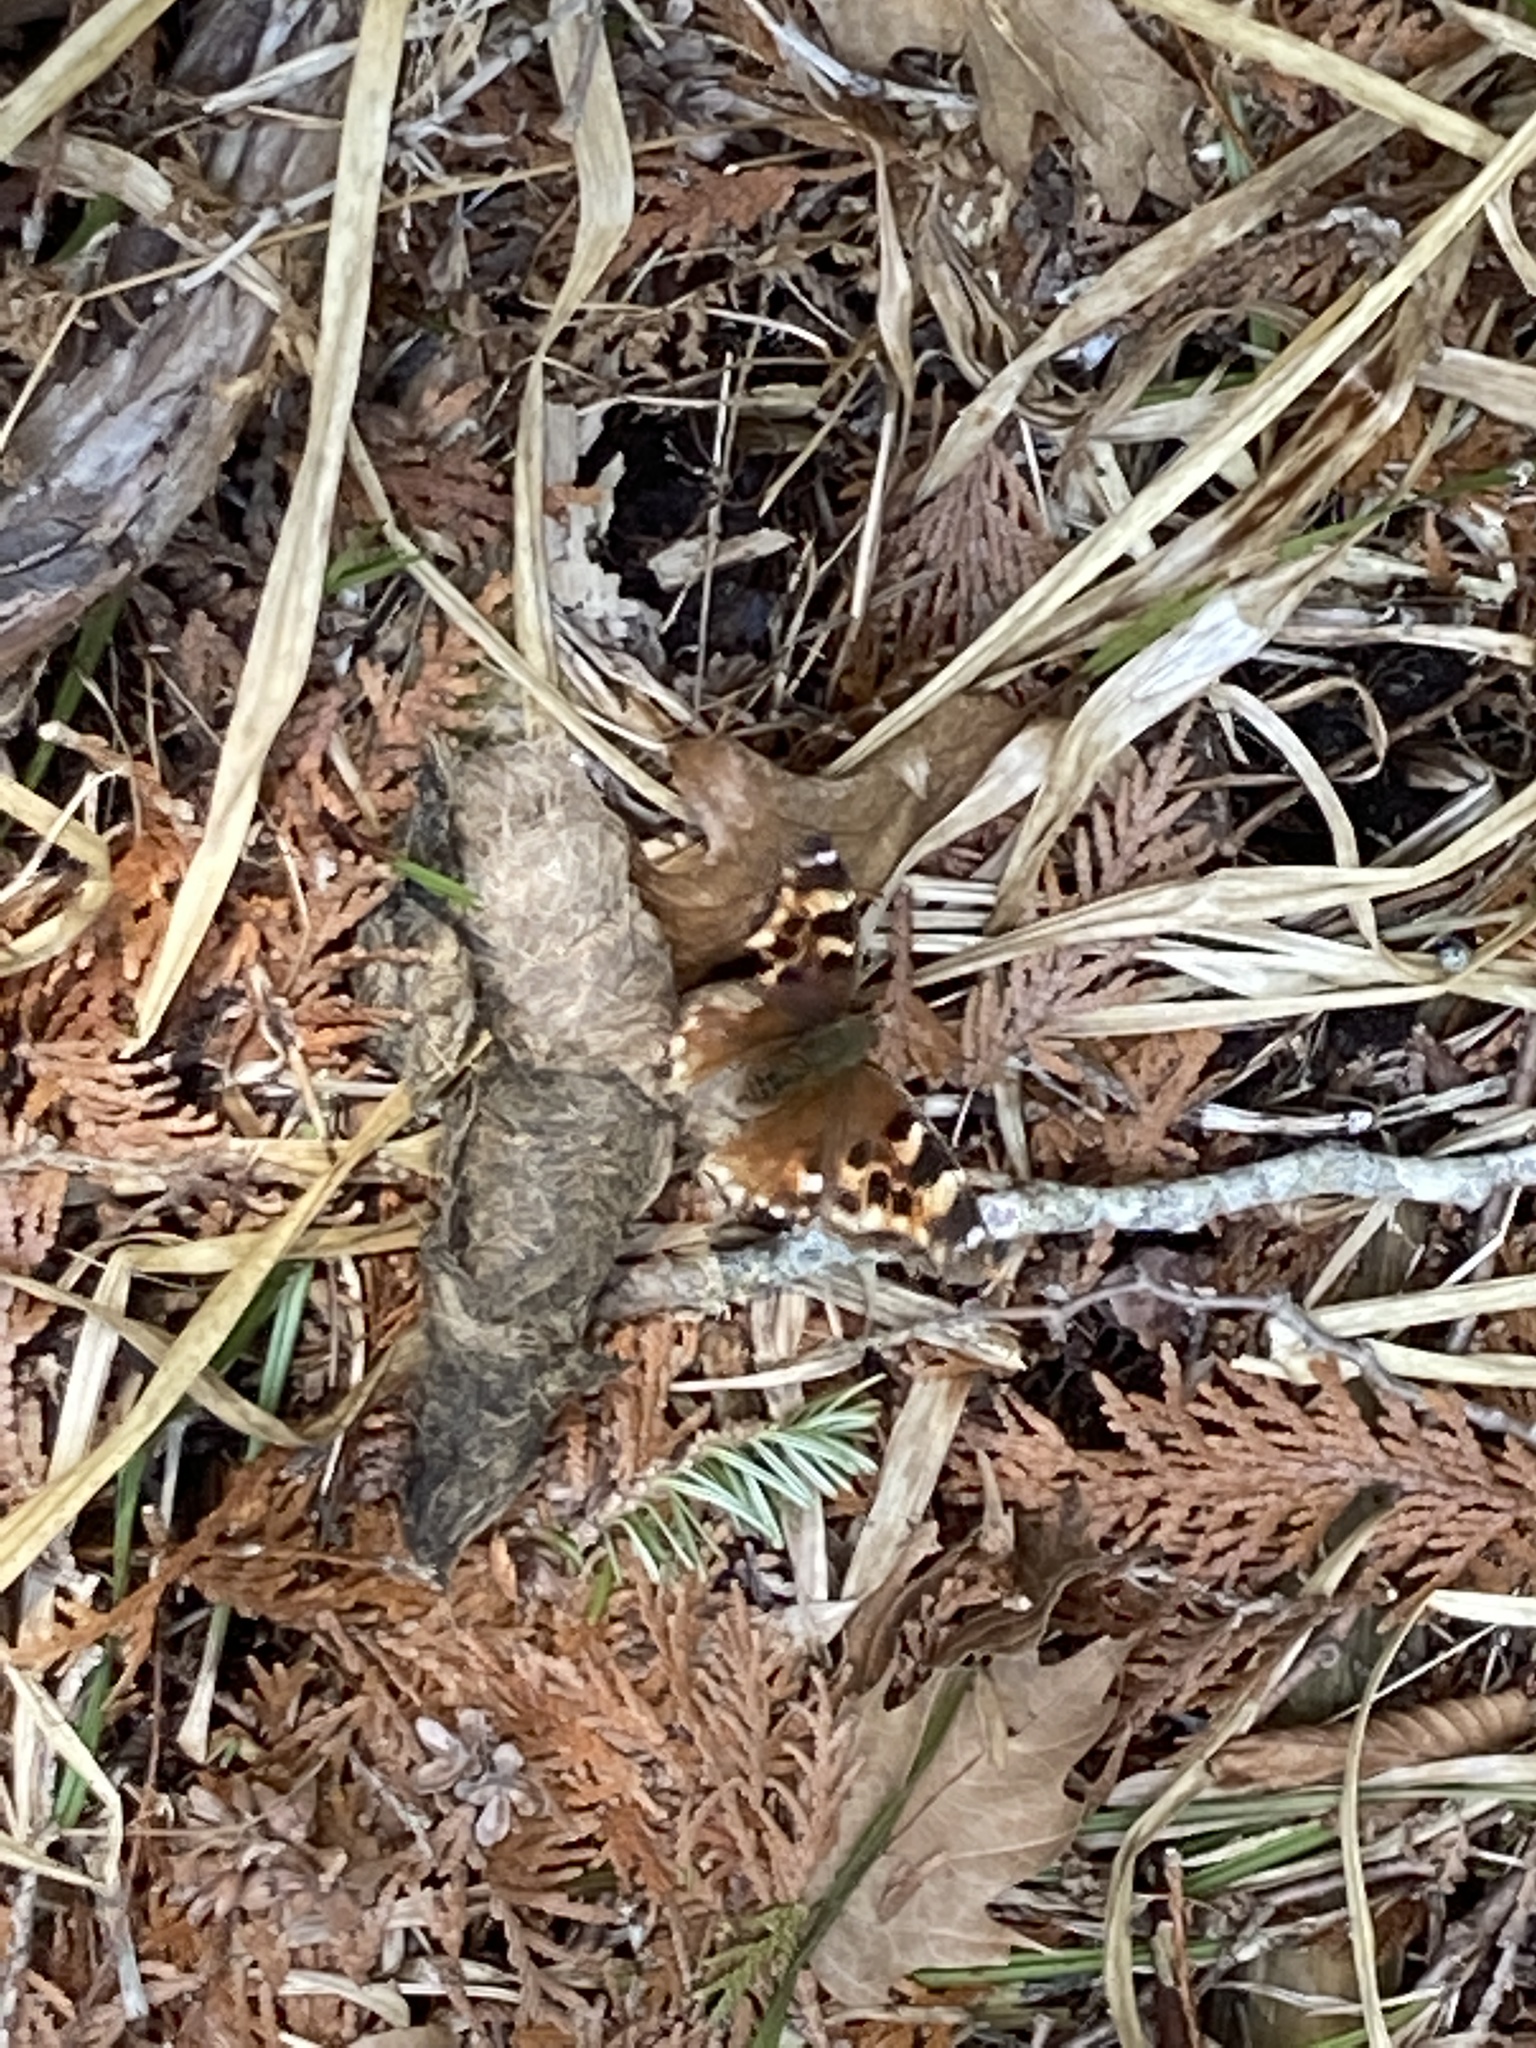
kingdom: Animalia
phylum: Arthropoda
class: Insecta
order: Lepidoptera
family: Nymphalidae
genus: Polygonia
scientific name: Polygonia vaualbum
